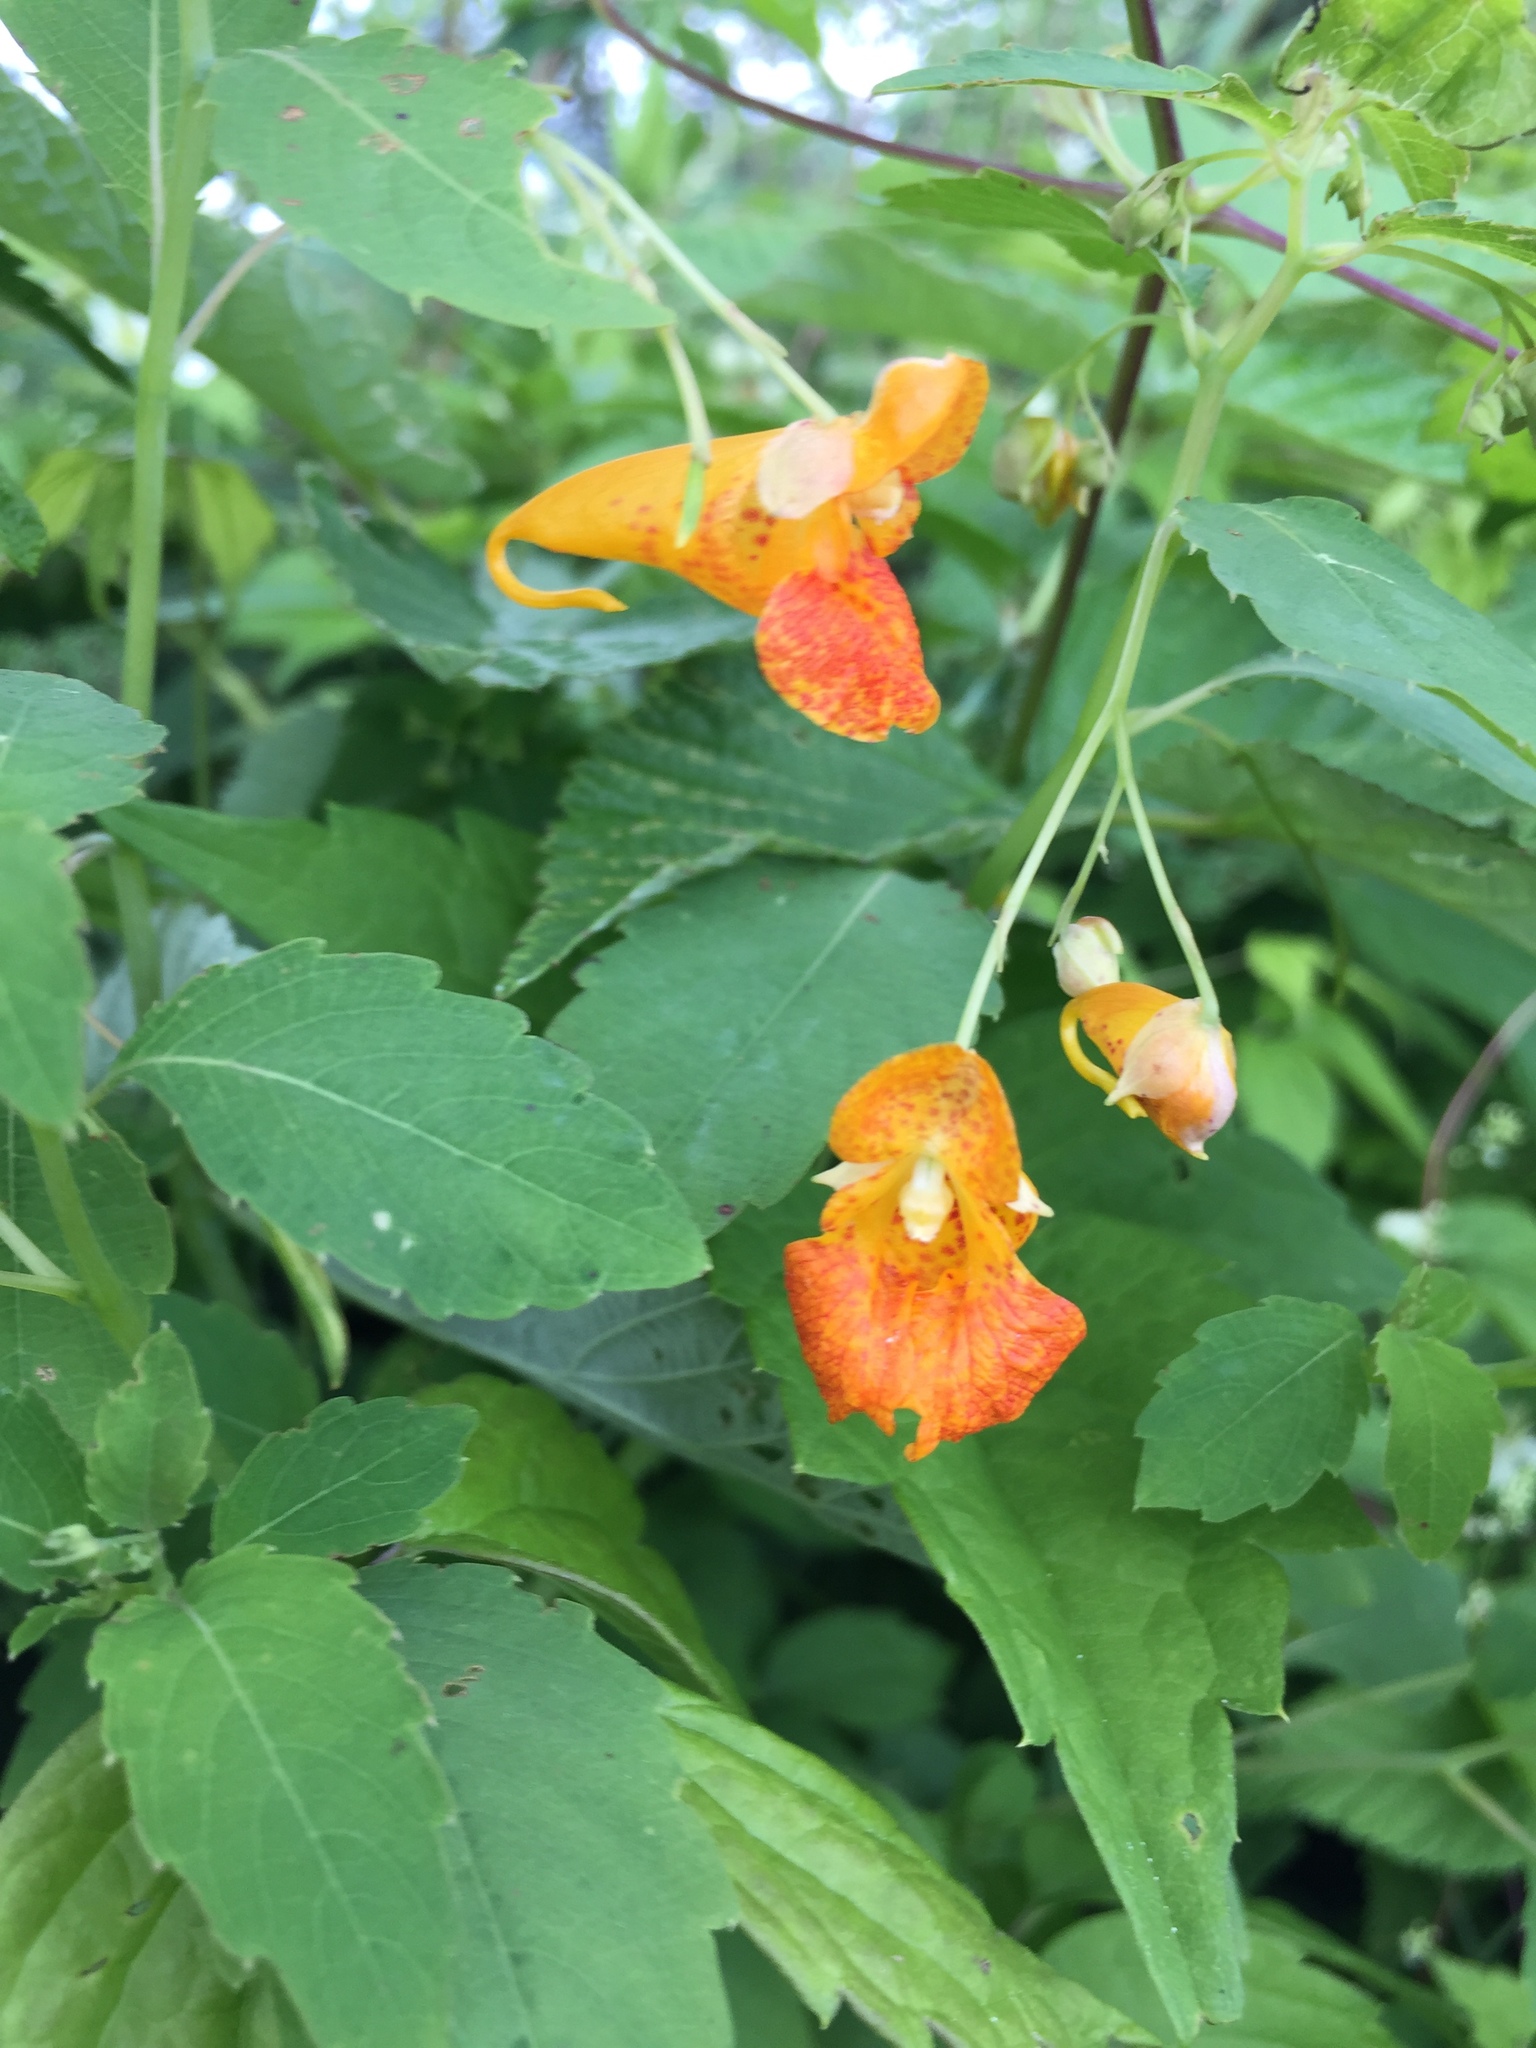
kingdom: Plantae
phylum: Tracheophyta
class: Magnoliopsida
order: Ericales
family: Balsaminaceae
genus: Impatiens
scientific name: Impatiens capensis
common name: Orange balsam
